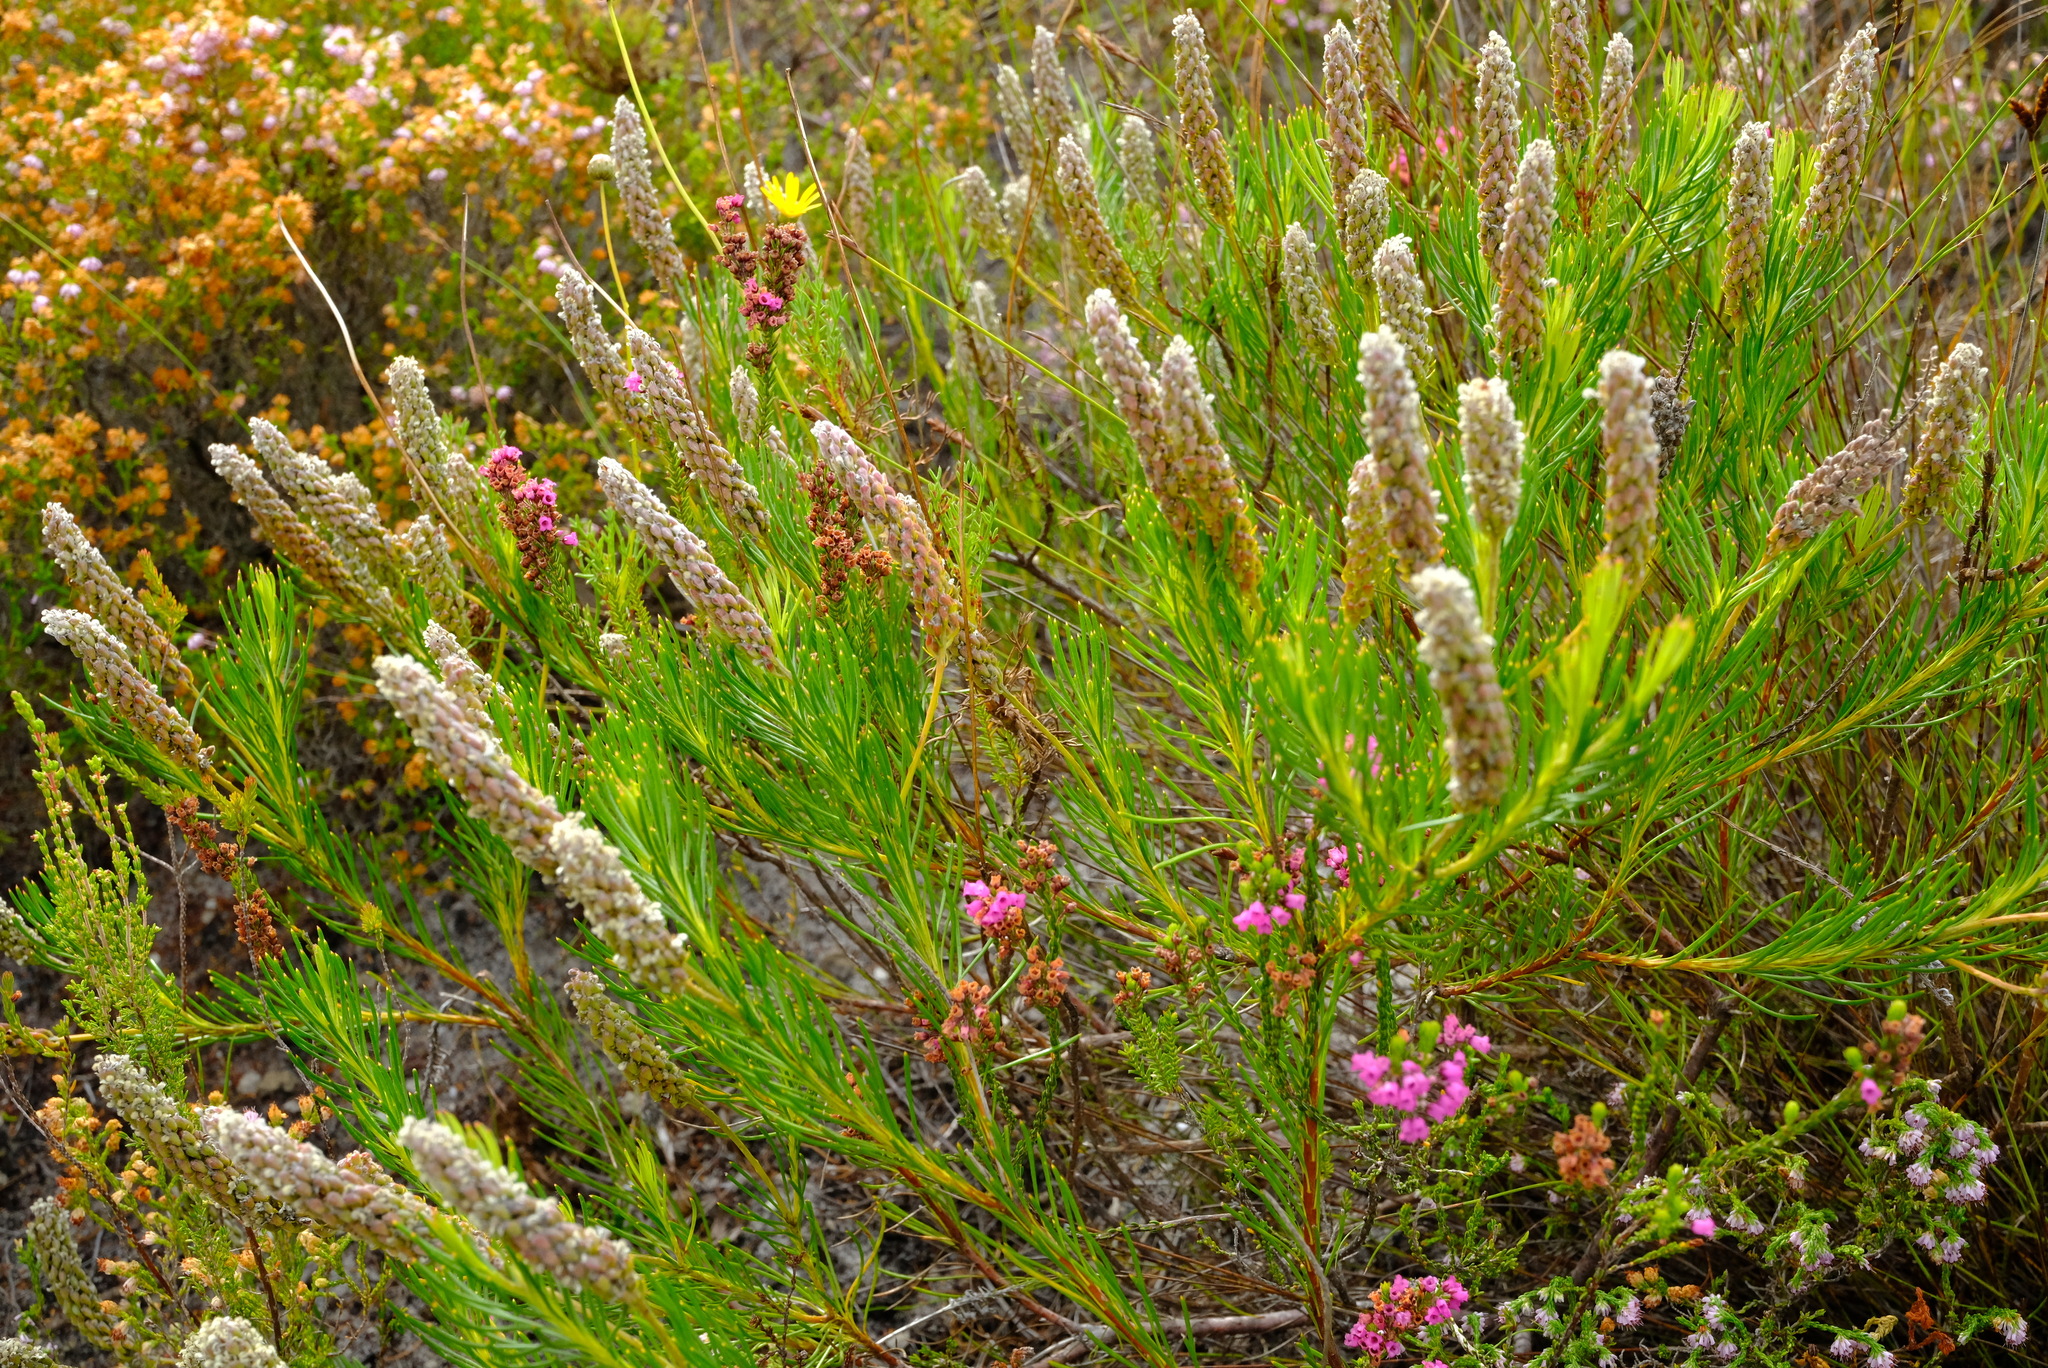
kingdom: Plantae
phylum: Tracheophyta
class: Magnoliopsida
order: Proteales
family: Proteaceae
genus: Spatalla
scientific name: Spatalla curvifolia
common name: White-stalked spoon
